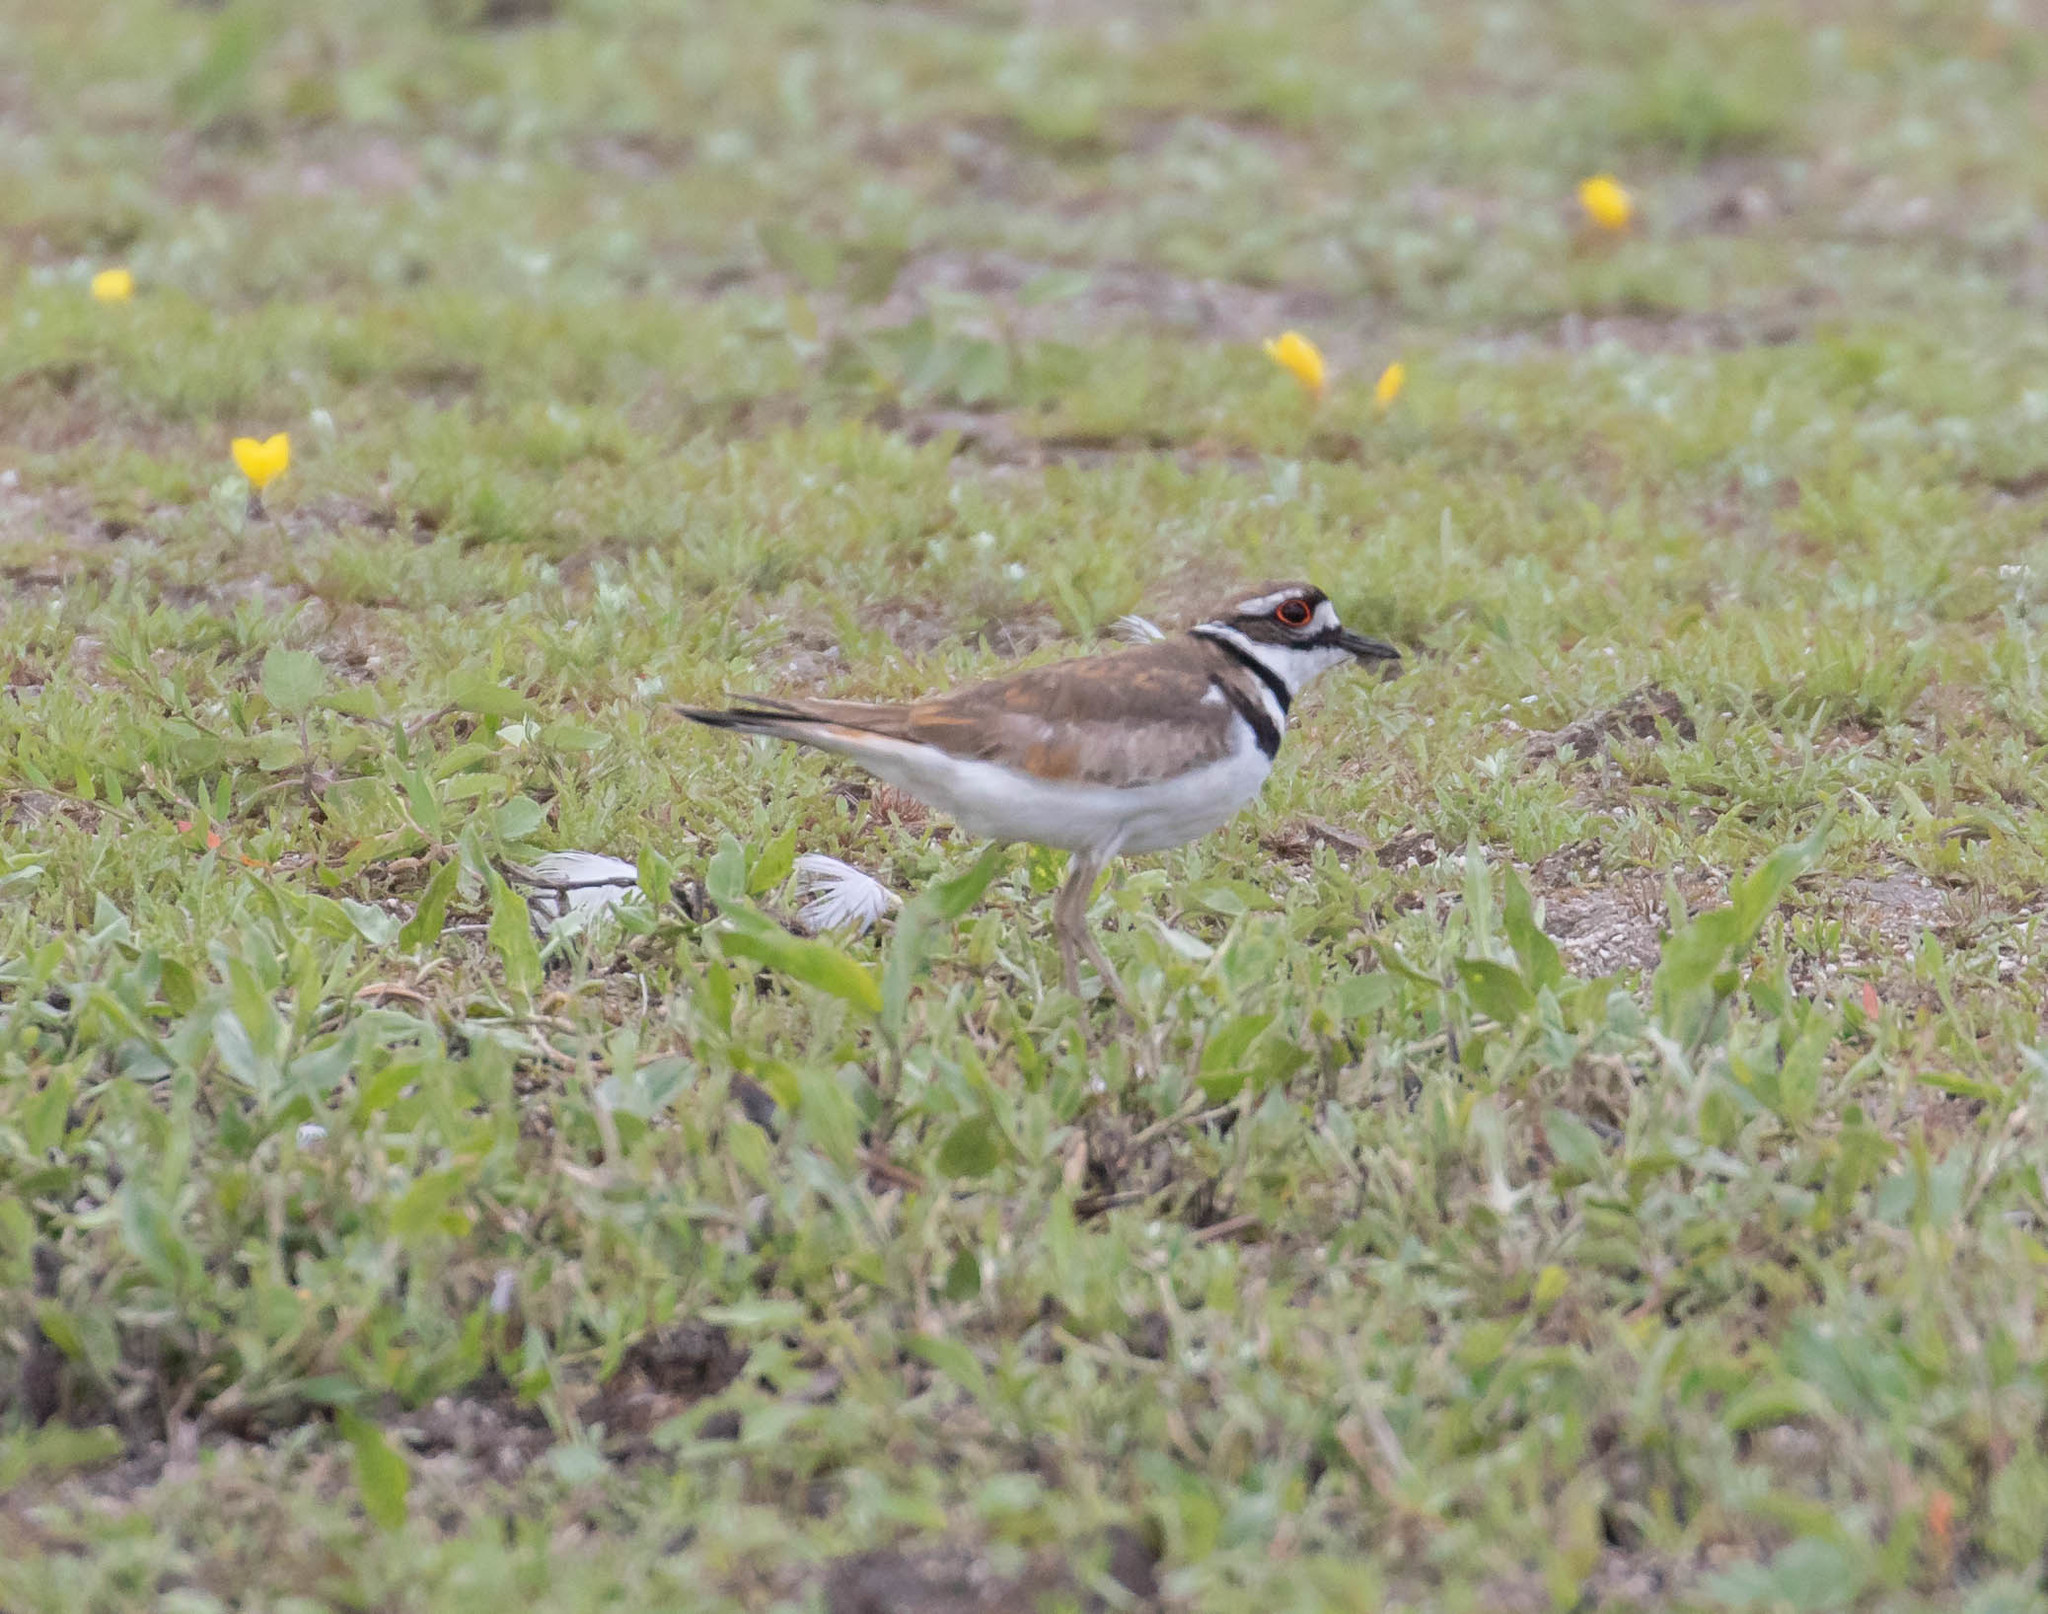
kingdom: Animalia
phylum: Chordata
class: Aves
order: Charadriiformes
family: Charadriidae
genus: Charadrius
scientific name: Charadrius vociferus
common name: Killdeer
